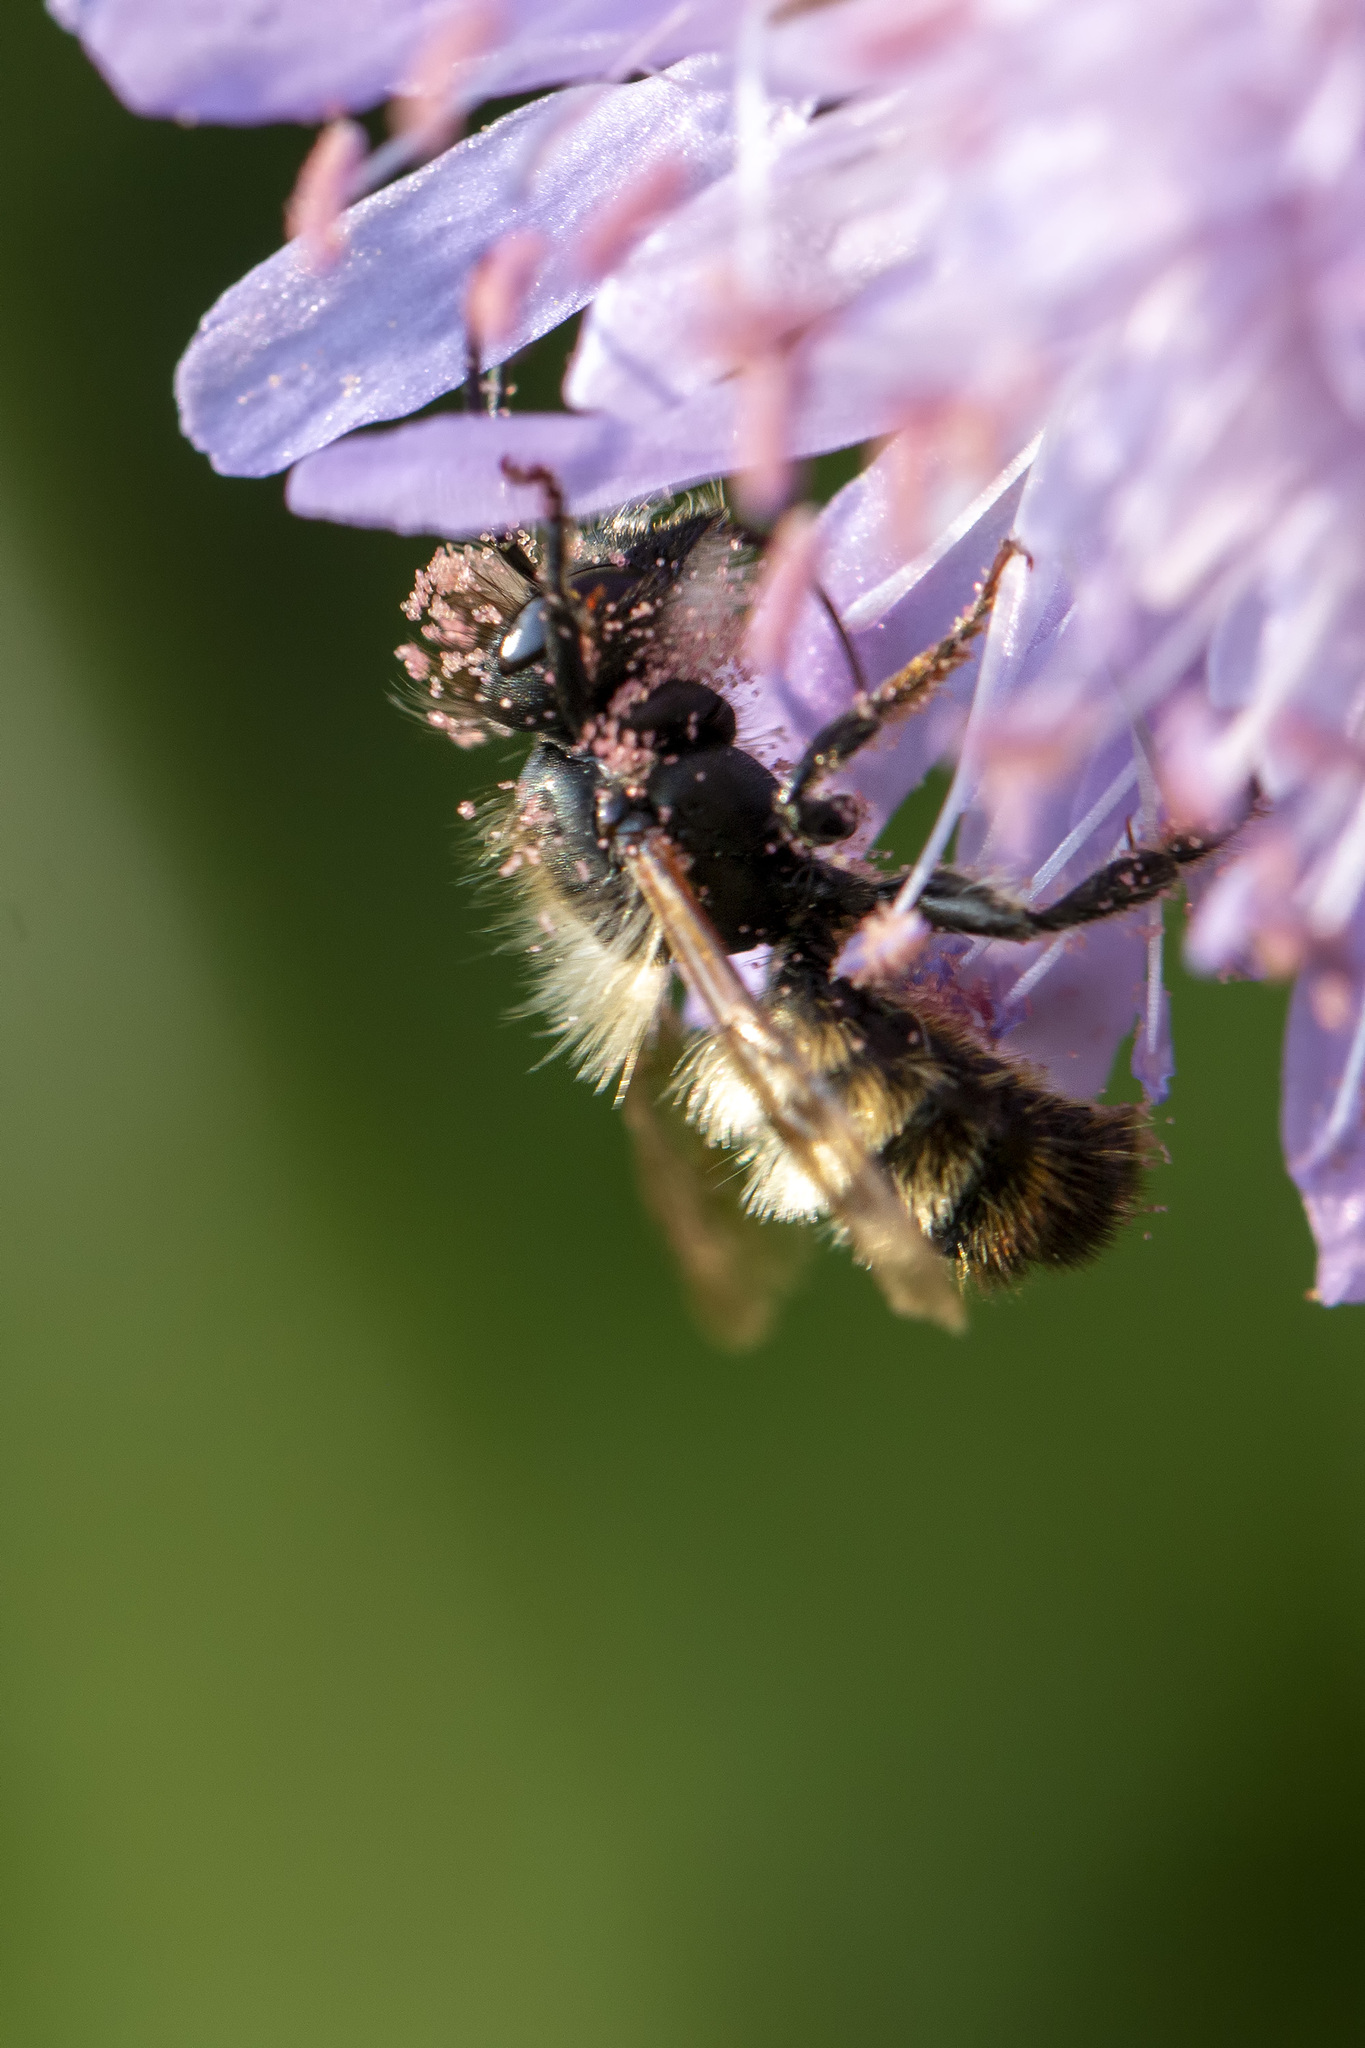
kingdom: Animalia
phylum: Arthropoda
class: Insecta
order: Hymenoptera
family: Megachilidae
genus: Osmia
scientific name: Osmia bicornis
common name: Red mason bee
